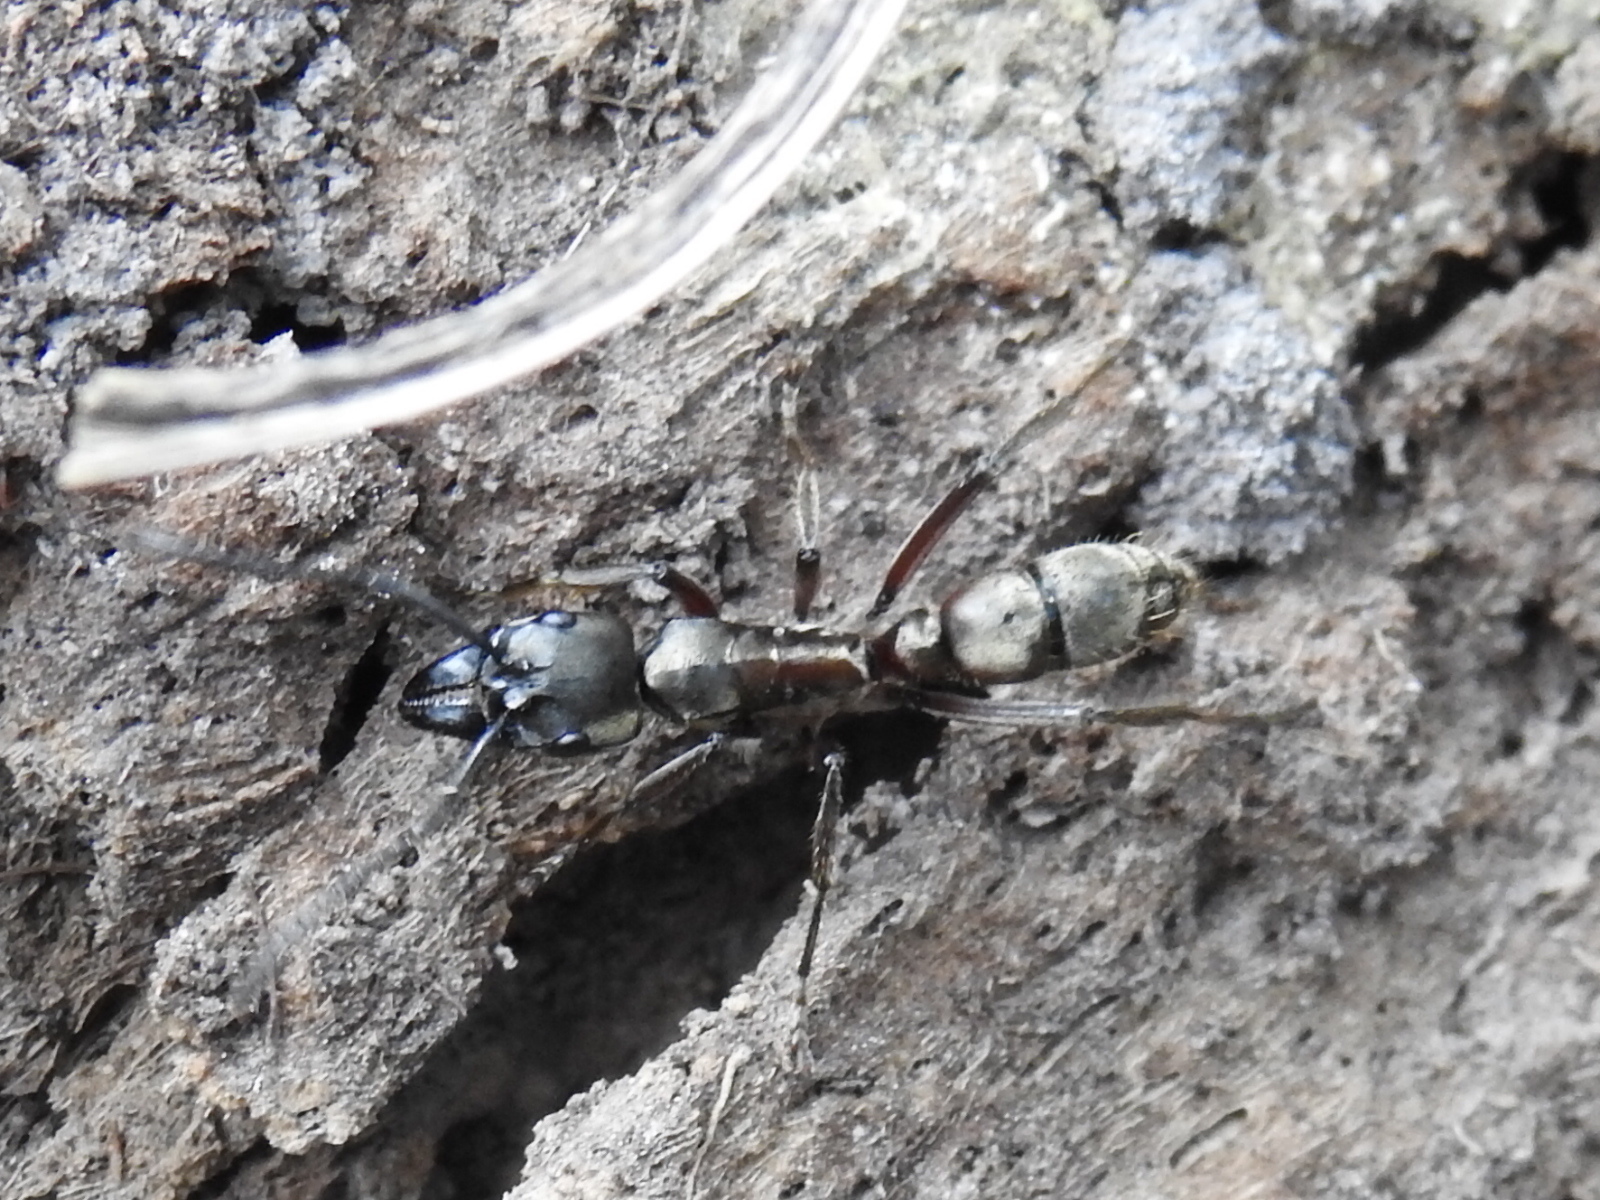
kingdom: Animalia
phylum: Arthropoda
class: Insecta
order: Hymenoptera
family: Formicidae
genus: Pachycondyla
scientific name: Pachycondyla villosa
